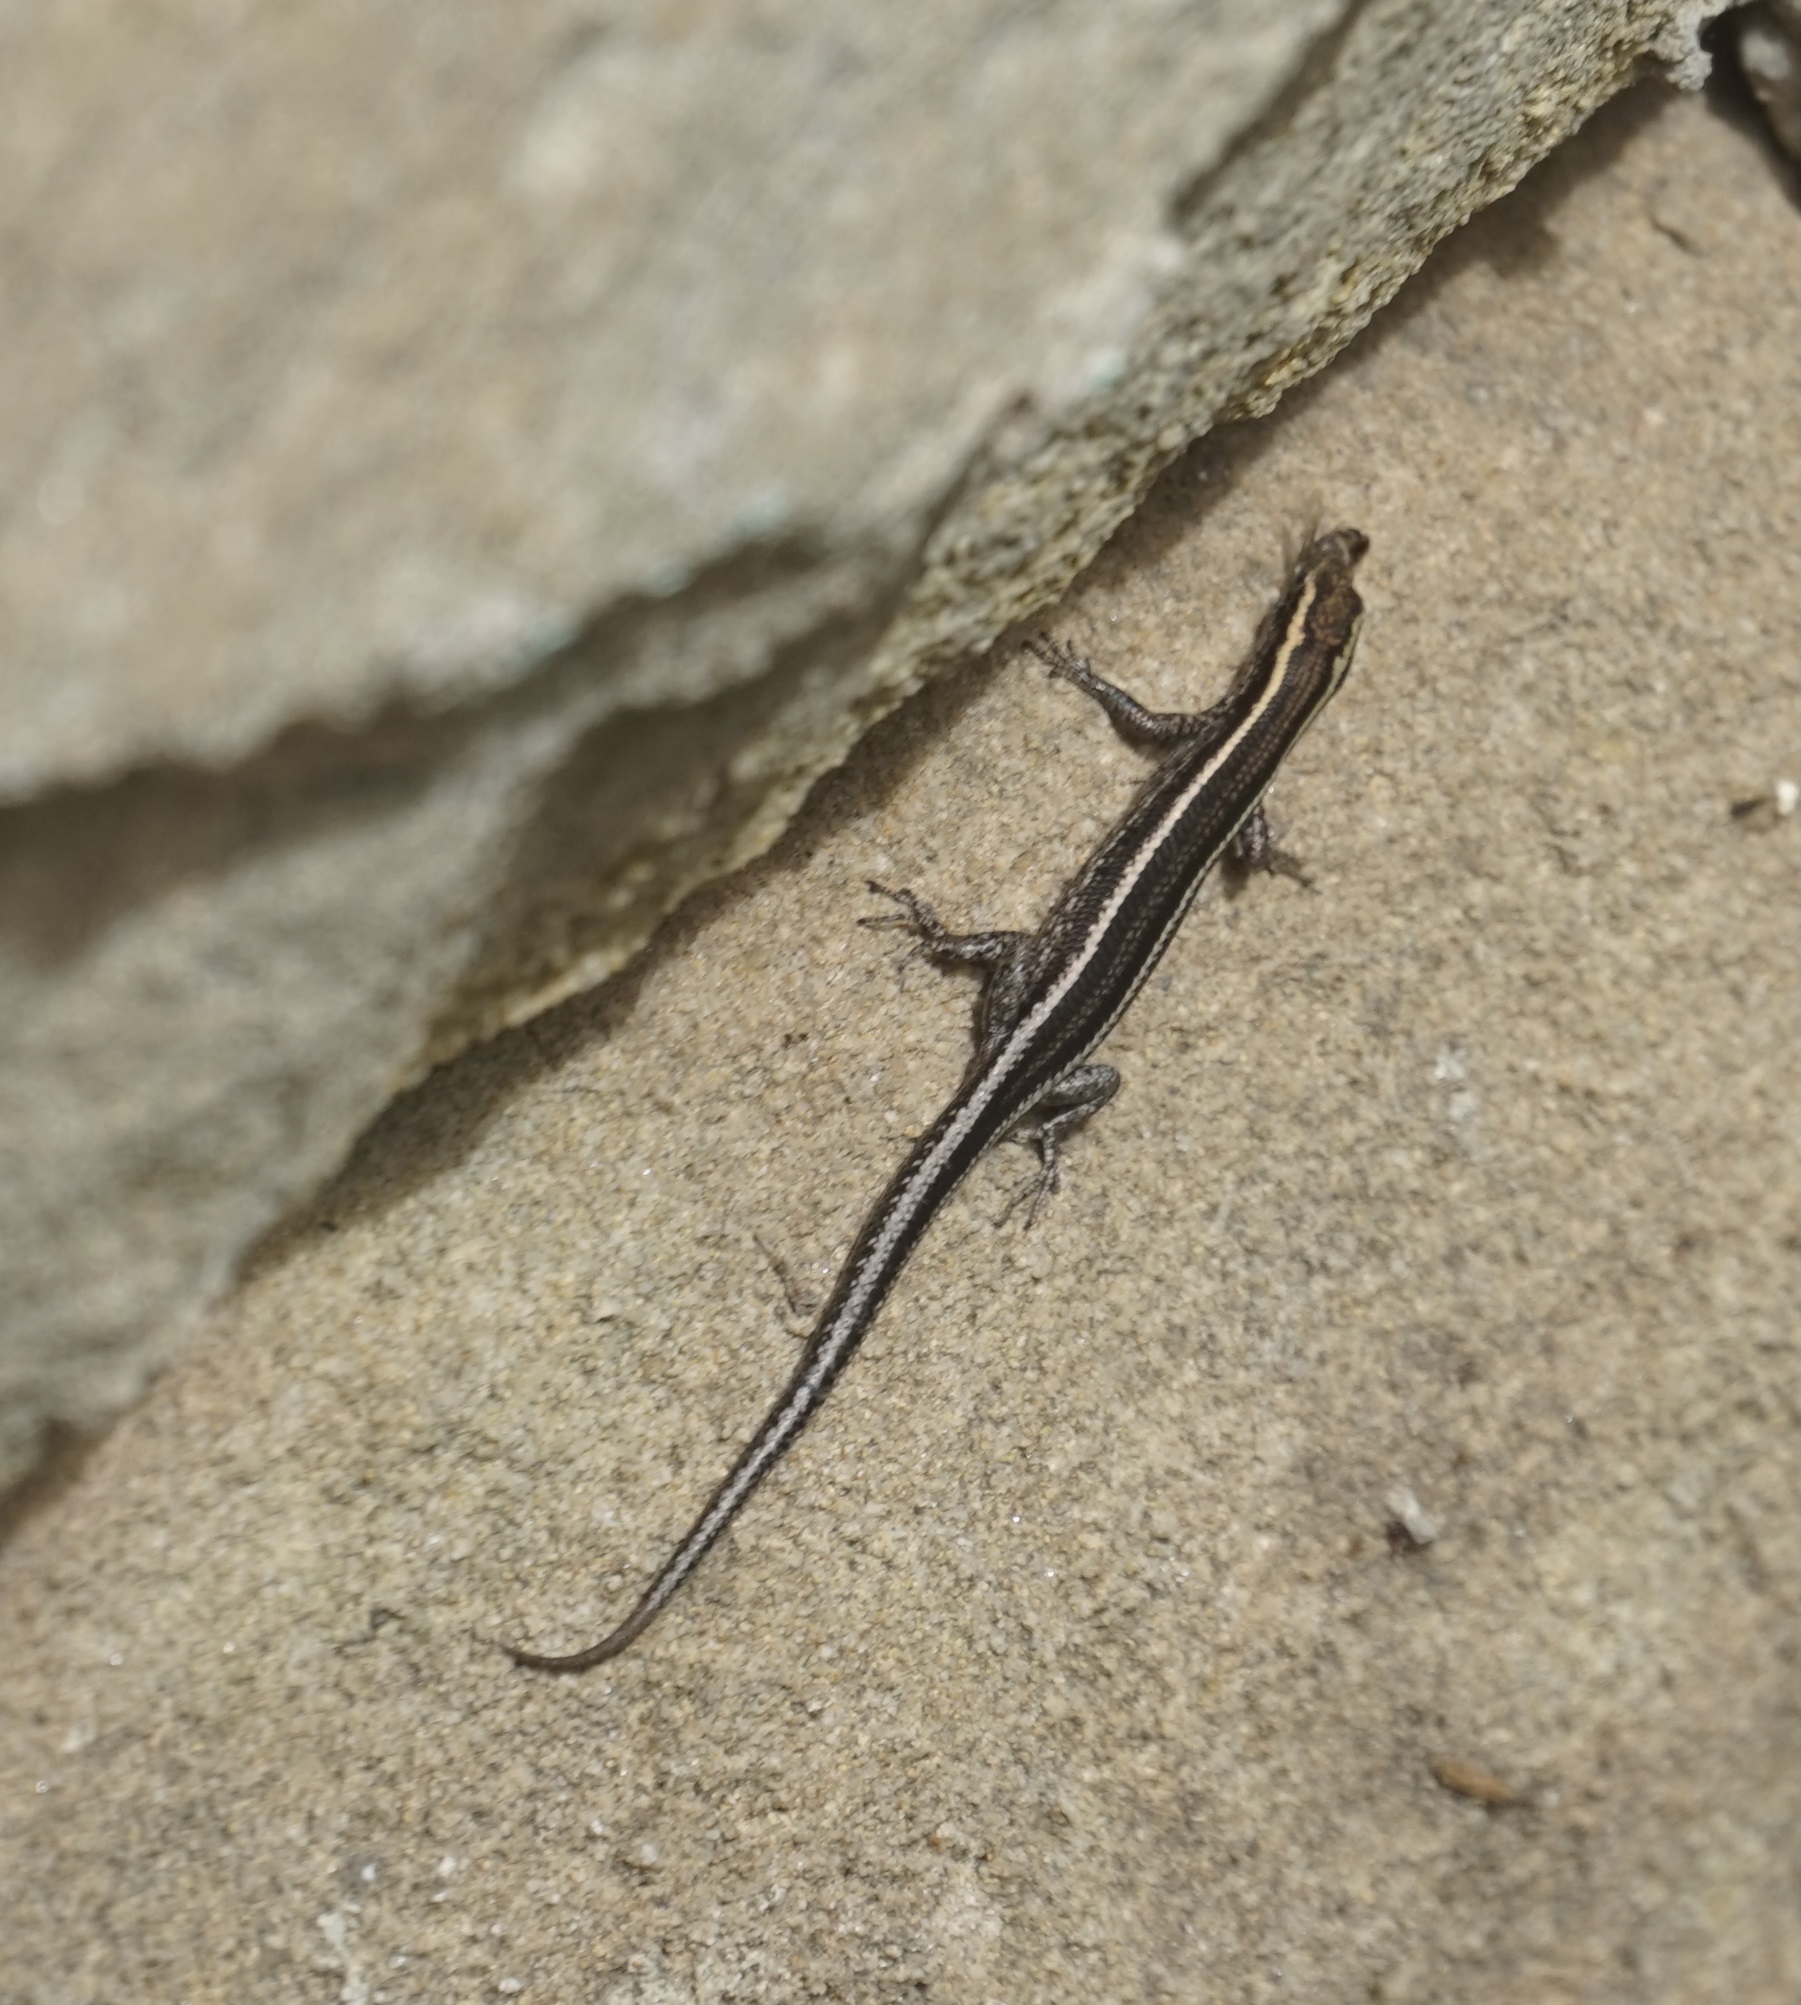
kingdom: Animalia
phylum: Chordata
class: Squamata
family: Scincidae
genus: Cryptoblepharus
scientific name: Cryptoblepharus pulcher
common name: Elegant snake-eyed skink
